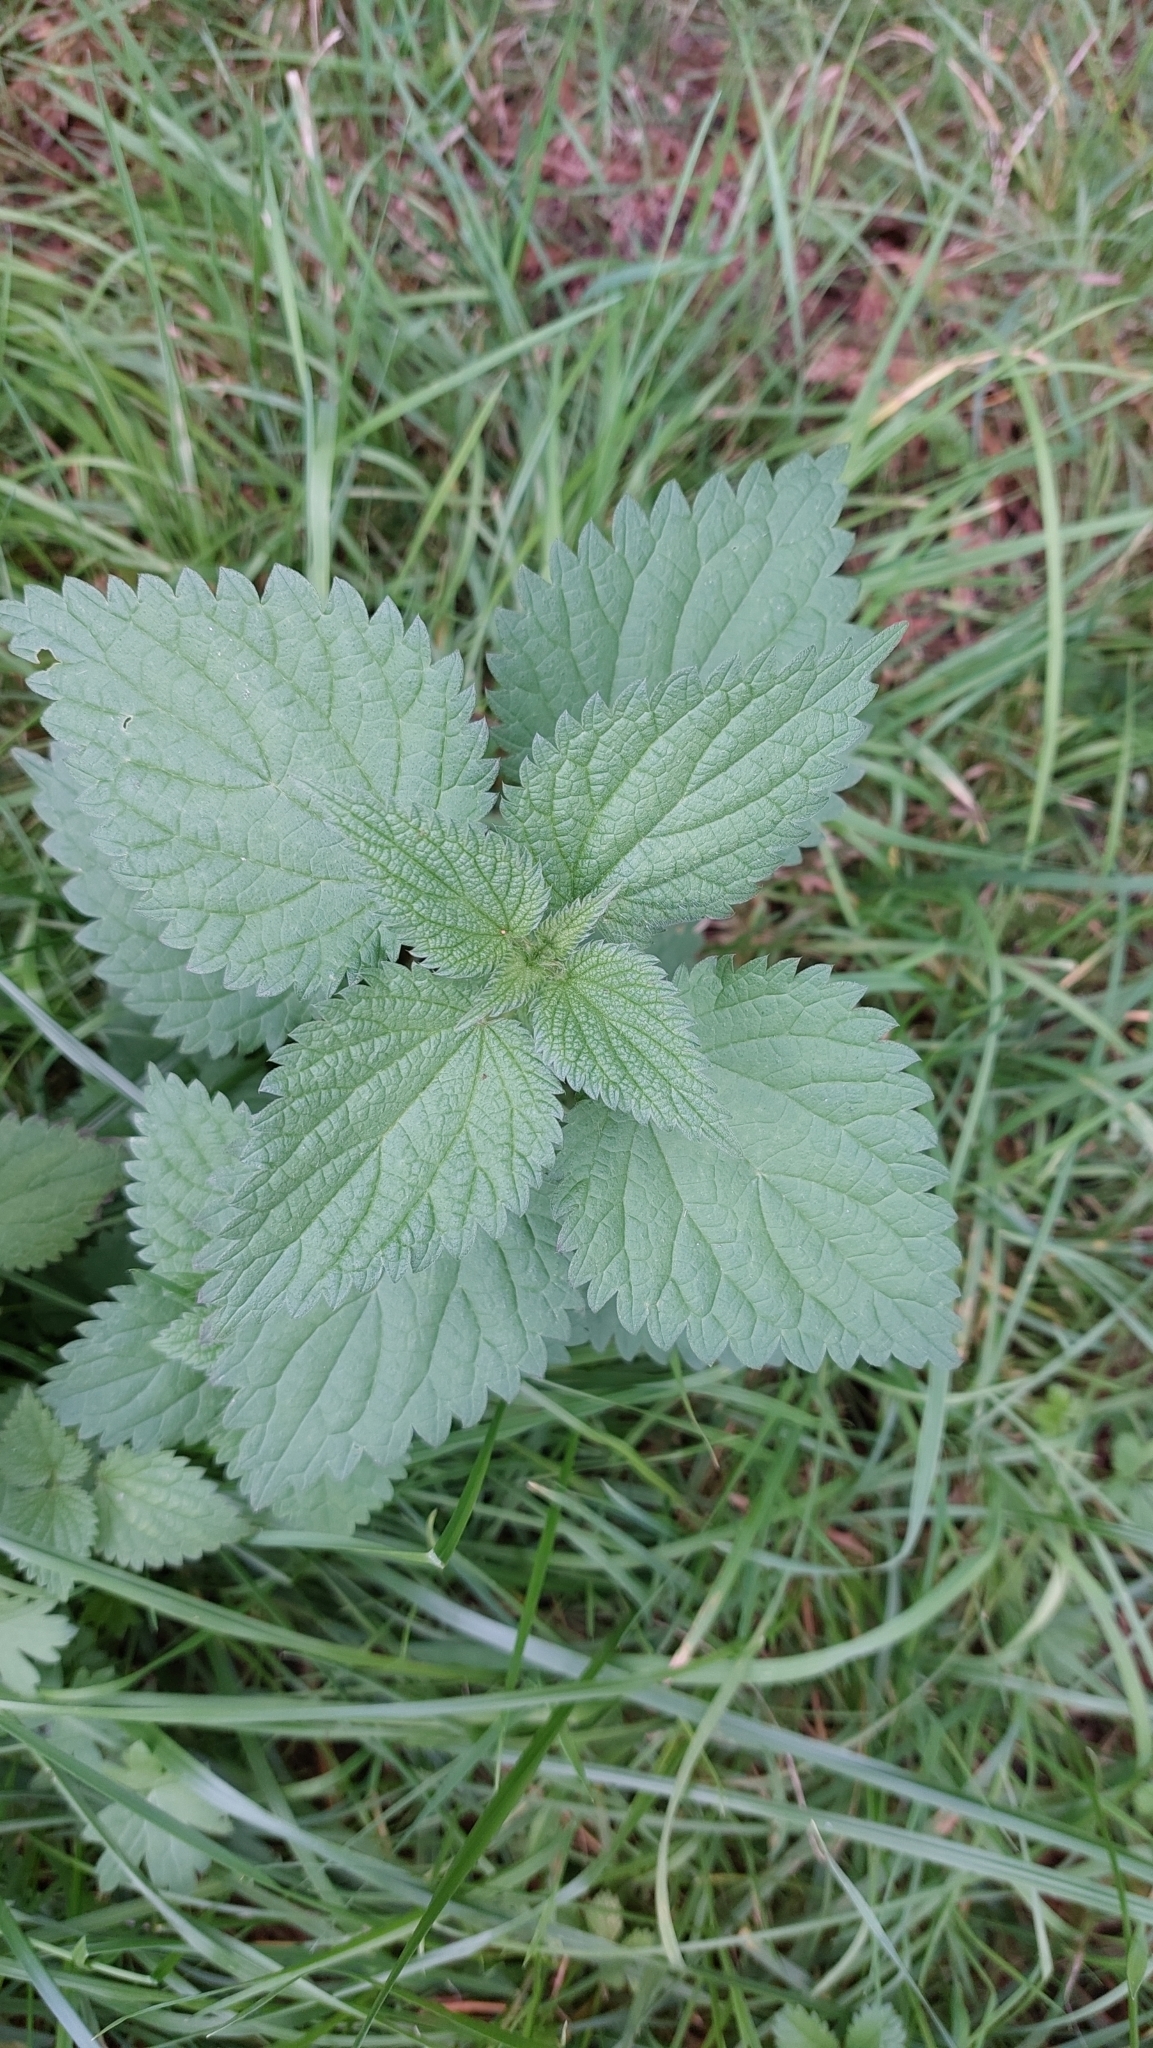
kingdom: Plantae
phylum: Tracheophyta
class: Magnoliopsida
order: Rosales
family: Urticaceae
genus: Urtica
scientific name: Urtica dioica
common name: Common nettle
